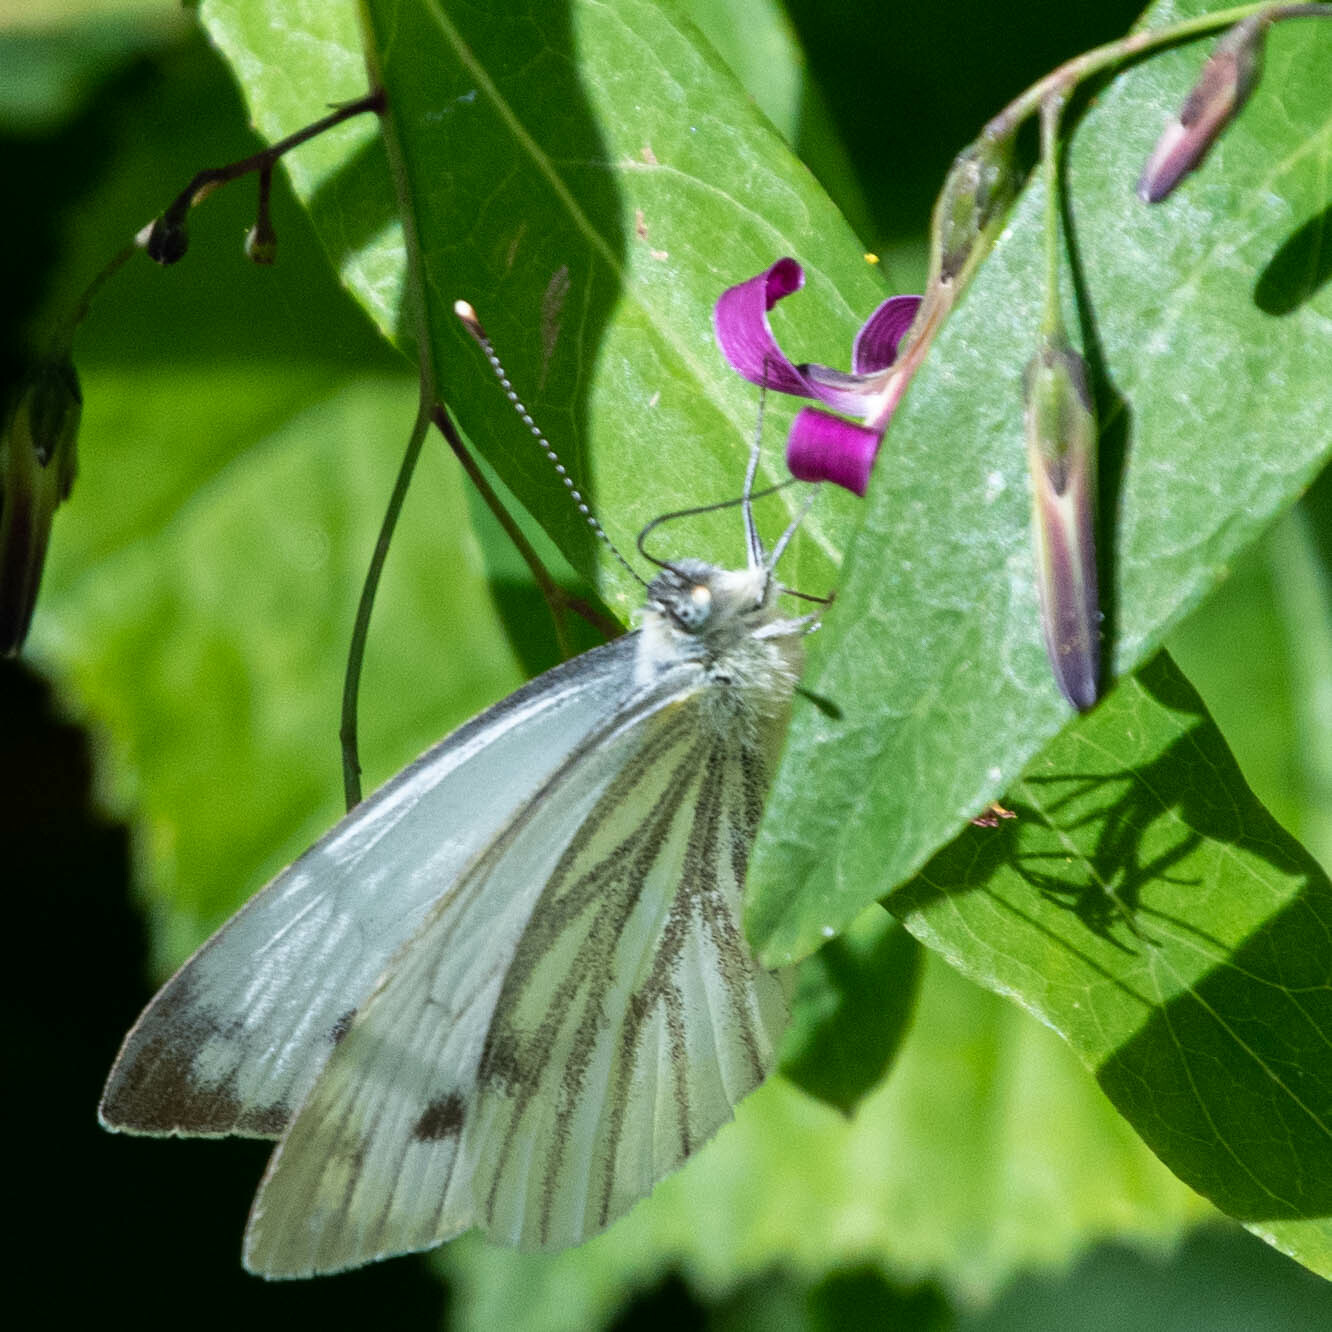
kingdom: Animalia
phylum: Arthropoda
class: Insecta
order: Lepidoptera
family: Pieridae
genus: Pieris
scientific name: Pieris napi
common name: Green-veined white
